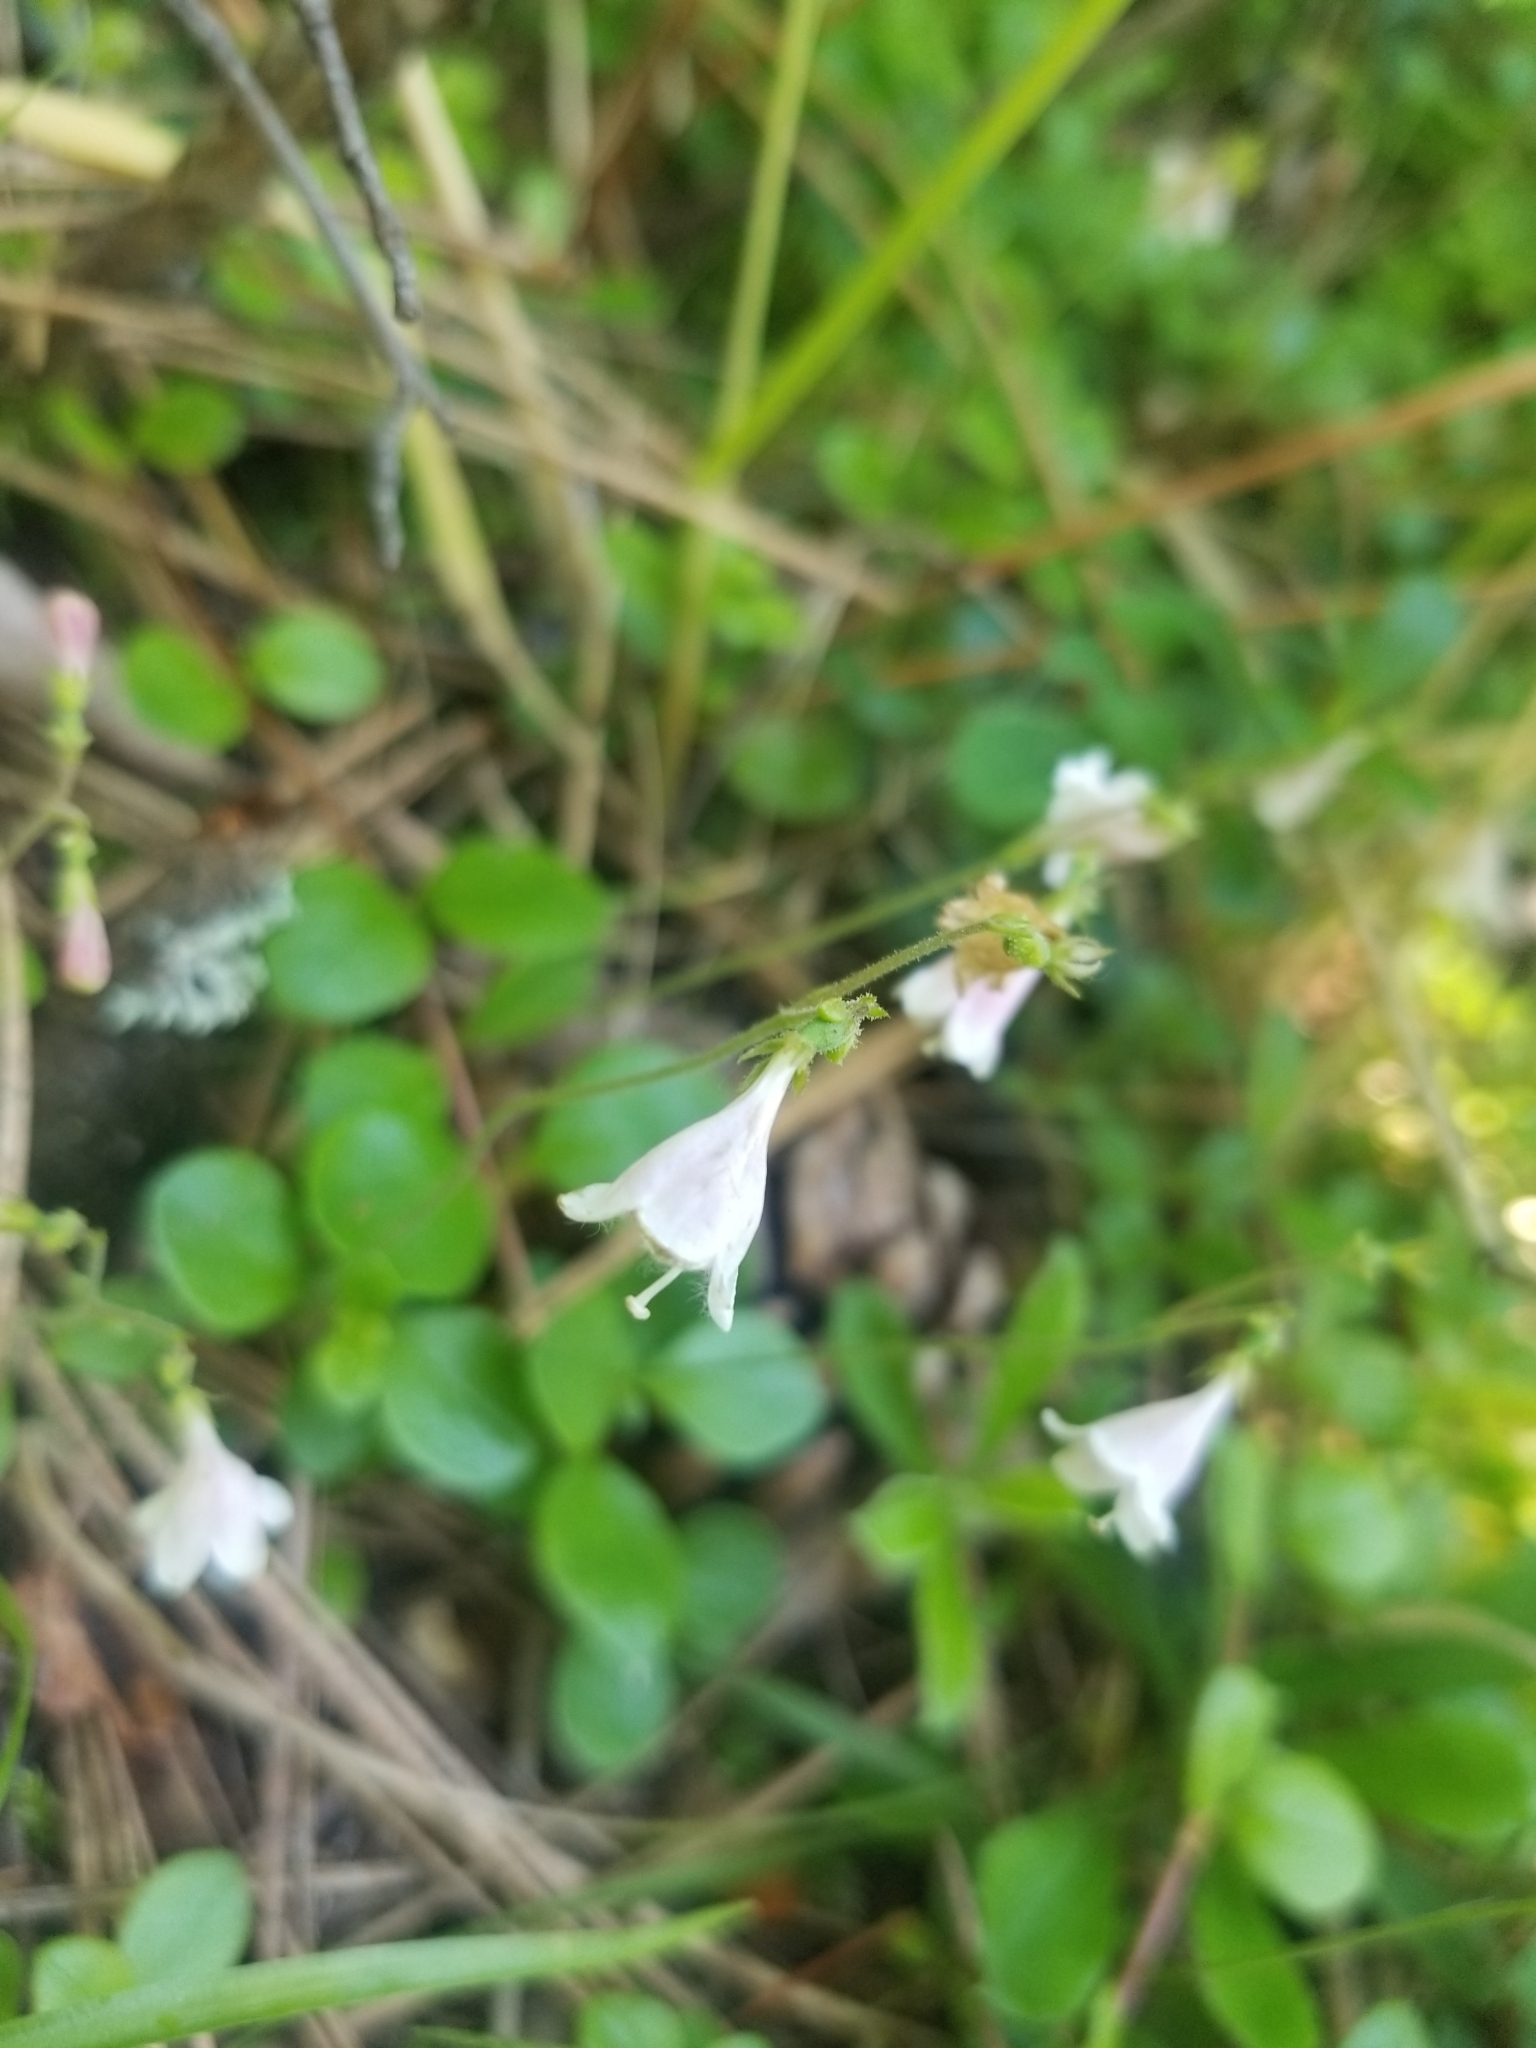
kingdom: Plantae
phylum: Tracheophyta
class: Magnoliopsida
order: Dipsacales
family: Caprifoliaceae
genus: Linnaea
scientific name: Linnaea borealis
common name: Twinflower
